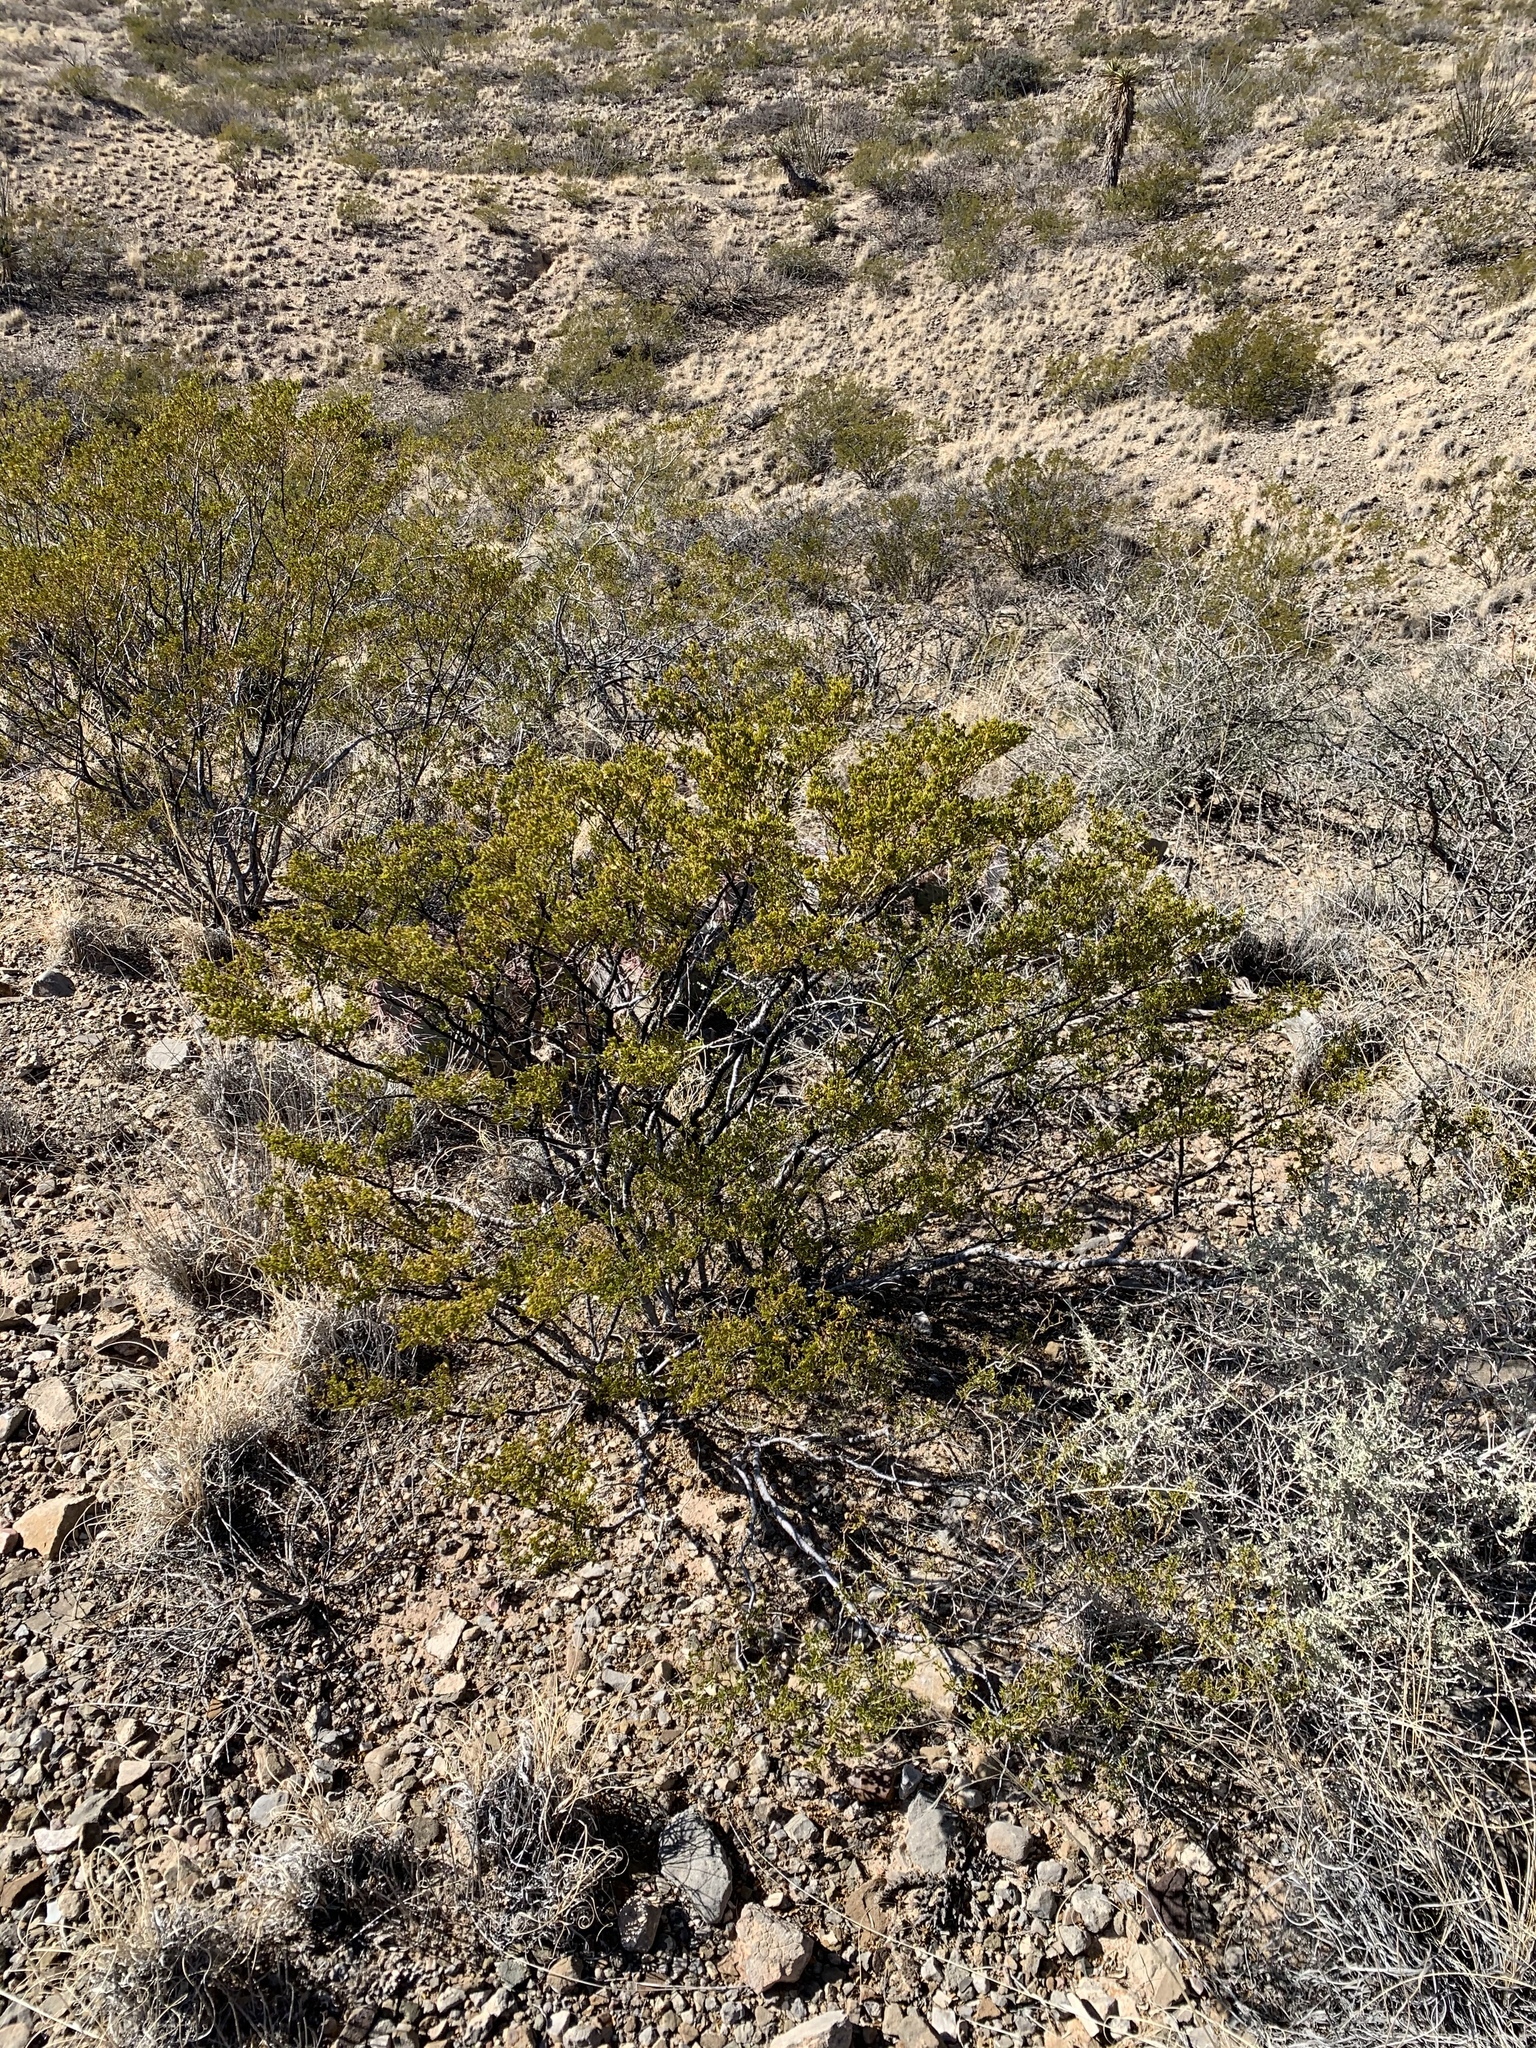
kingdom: Plantae
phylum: Tracheophyta
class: Magnoliopsida
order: Zygophyllales
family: Zygophyllaceae
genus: Larrea
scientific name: Larrea tridentata
